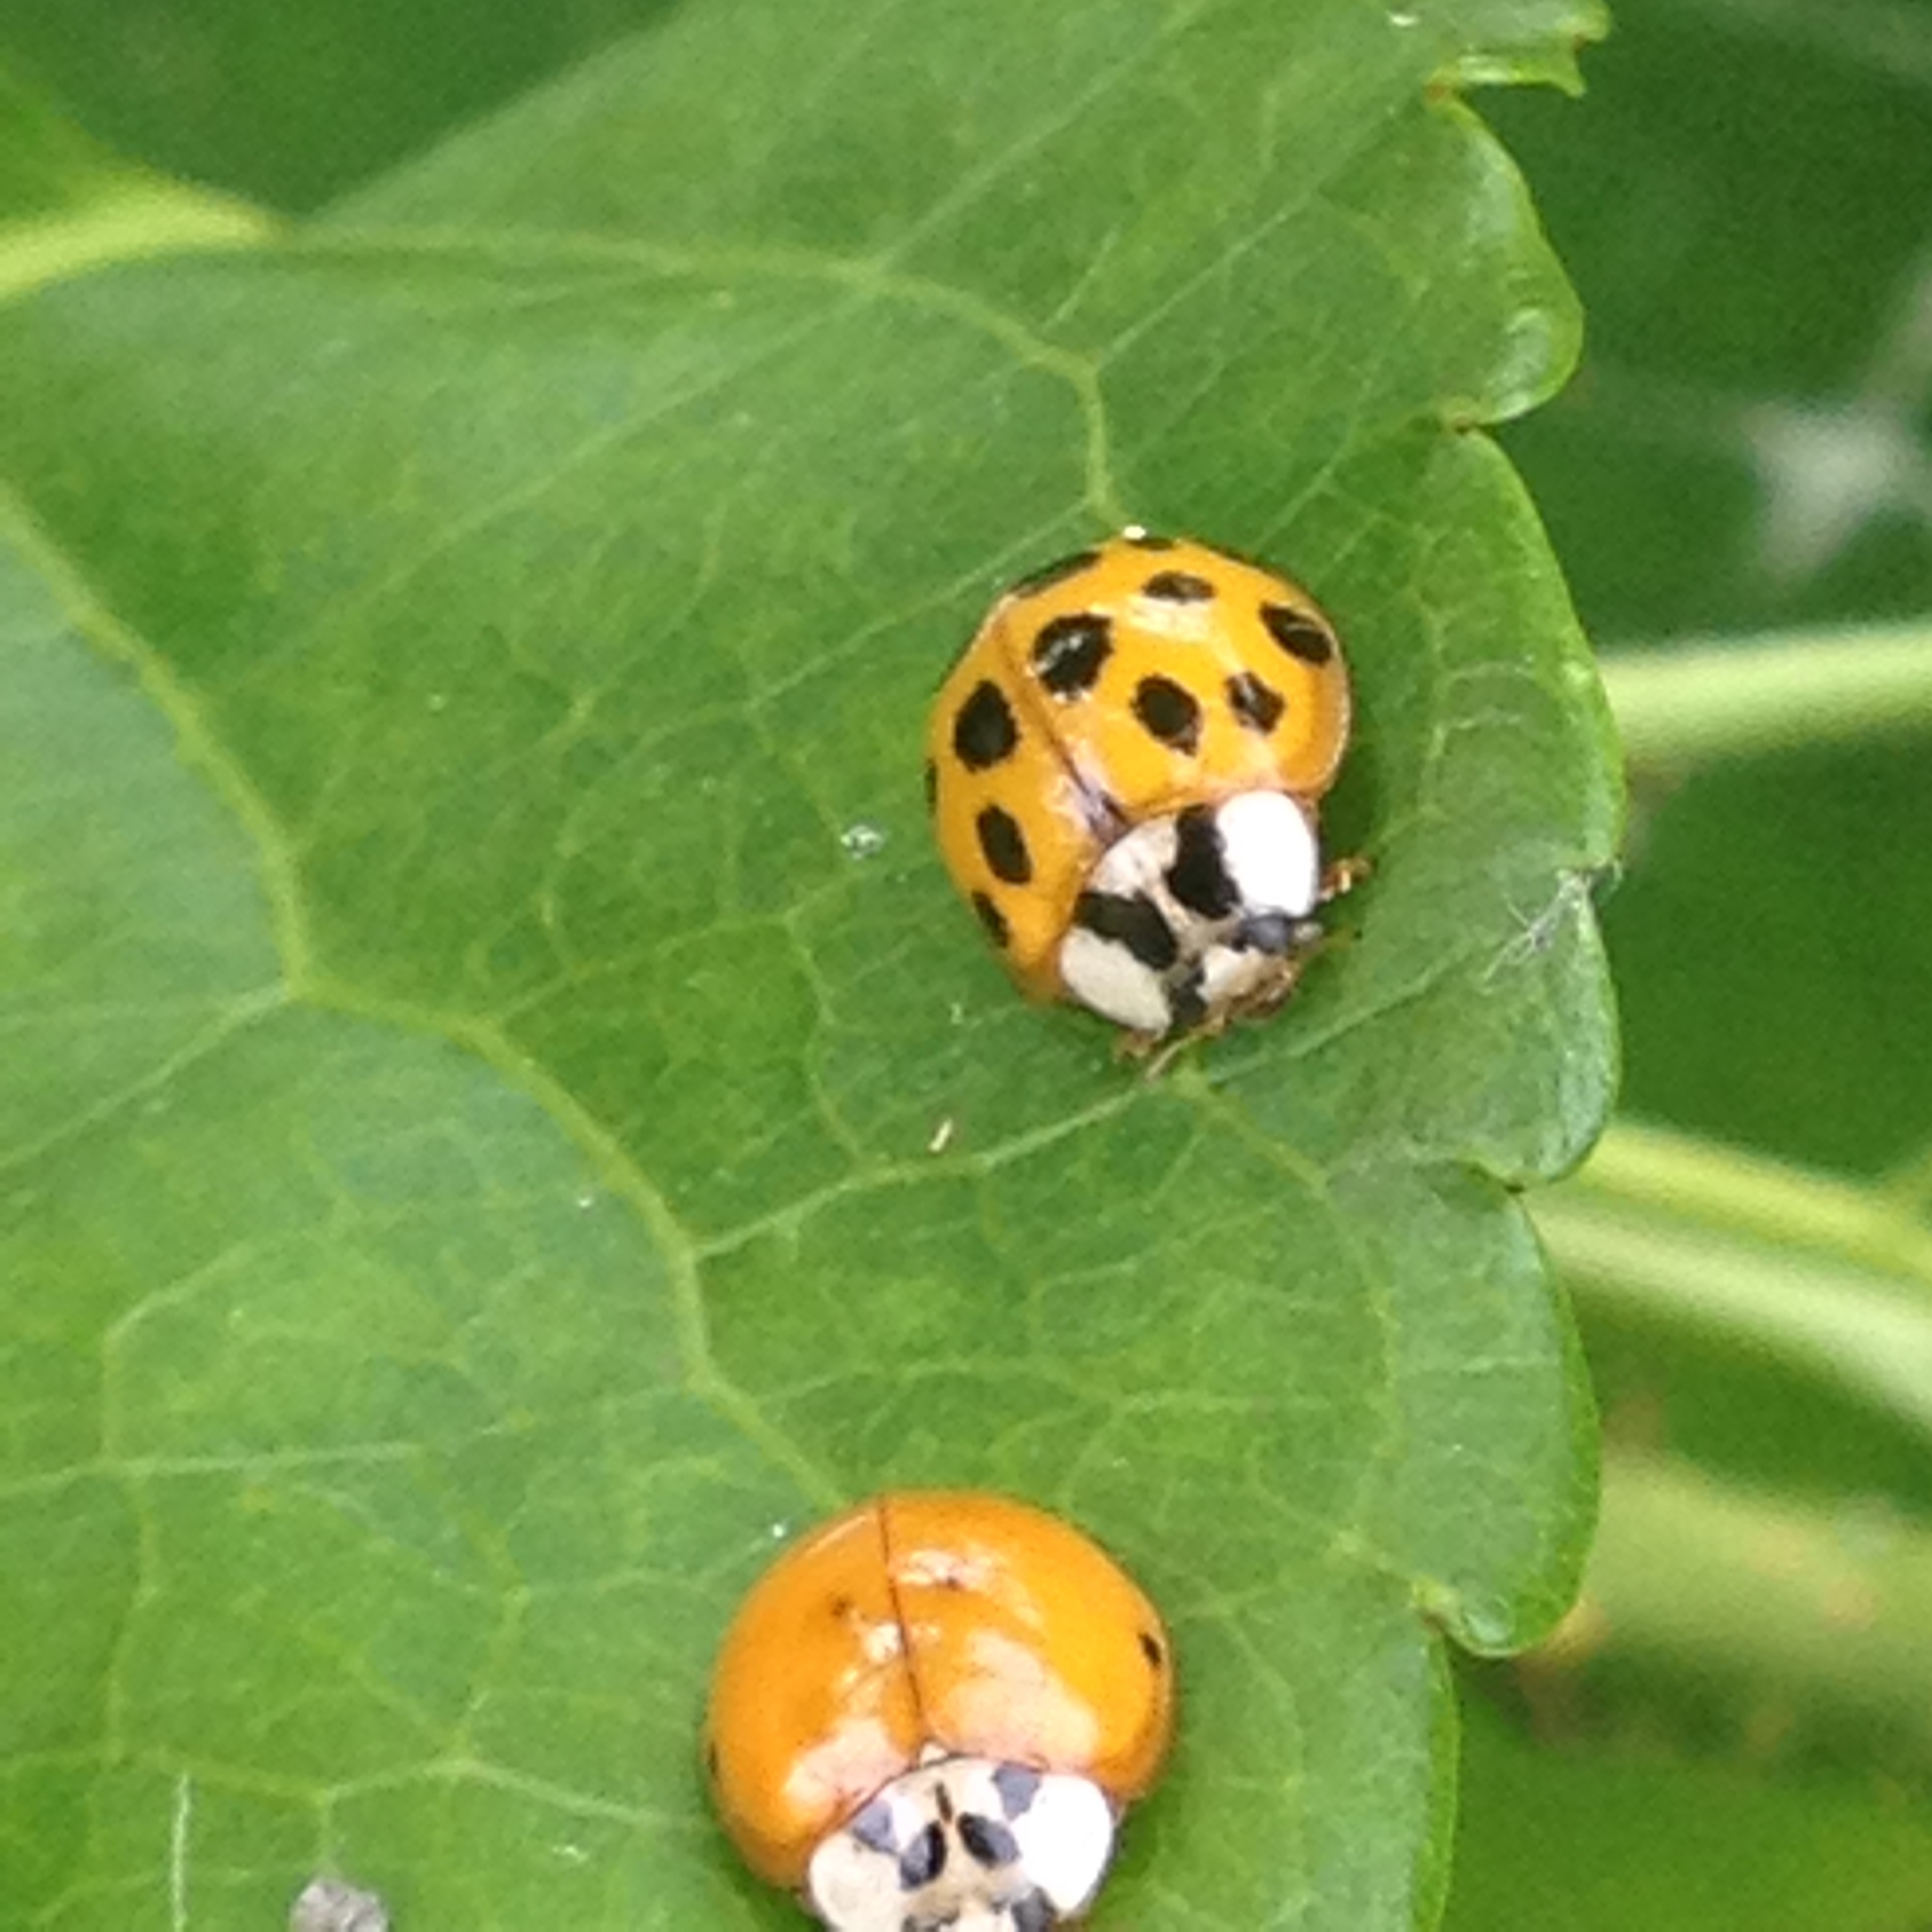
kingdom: Animalia
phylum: Arthropoda
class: Insecta
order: Coleoptera
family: Coccinellidae
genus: Harmonia
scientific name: Harmonia axyridis
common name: Harlequin ladybird
